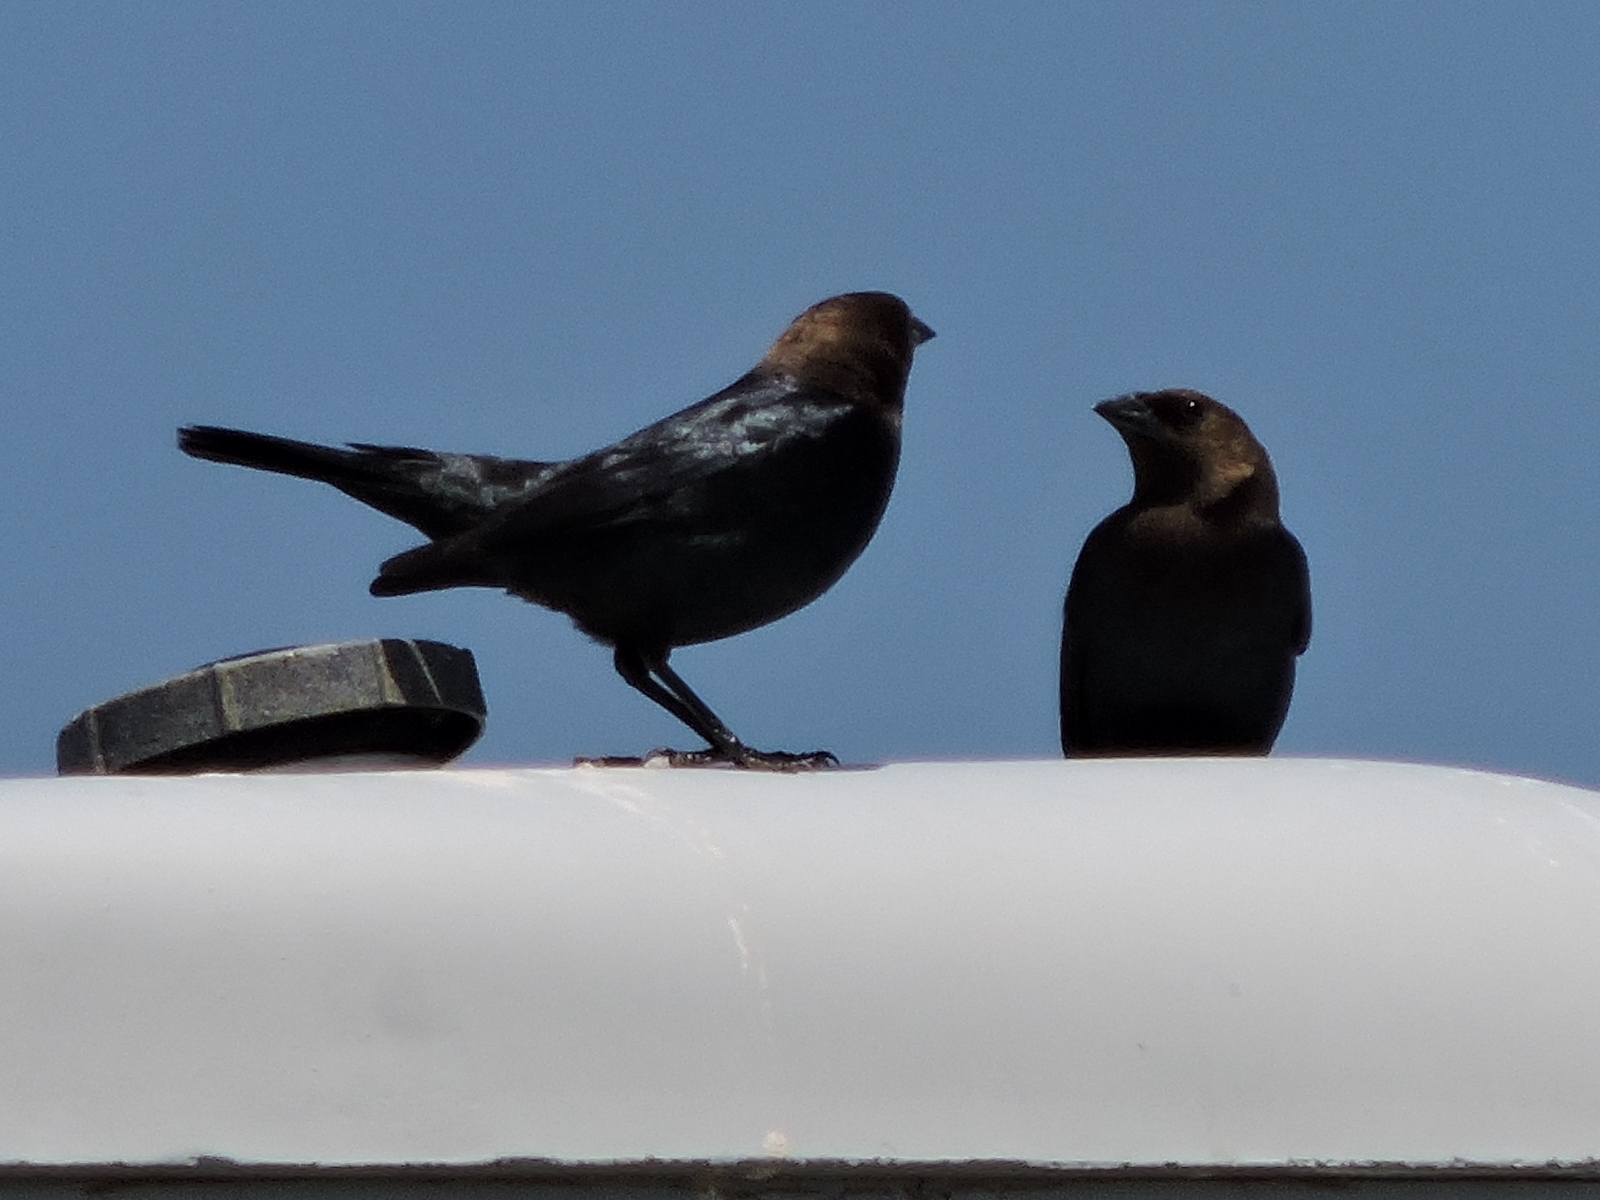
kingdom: Animalia
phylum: Chordata
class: Aves
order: Passeriformes
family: Icteridae
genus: Molothrus
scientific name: Molothrus ater
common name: Brown-headed cowbird
